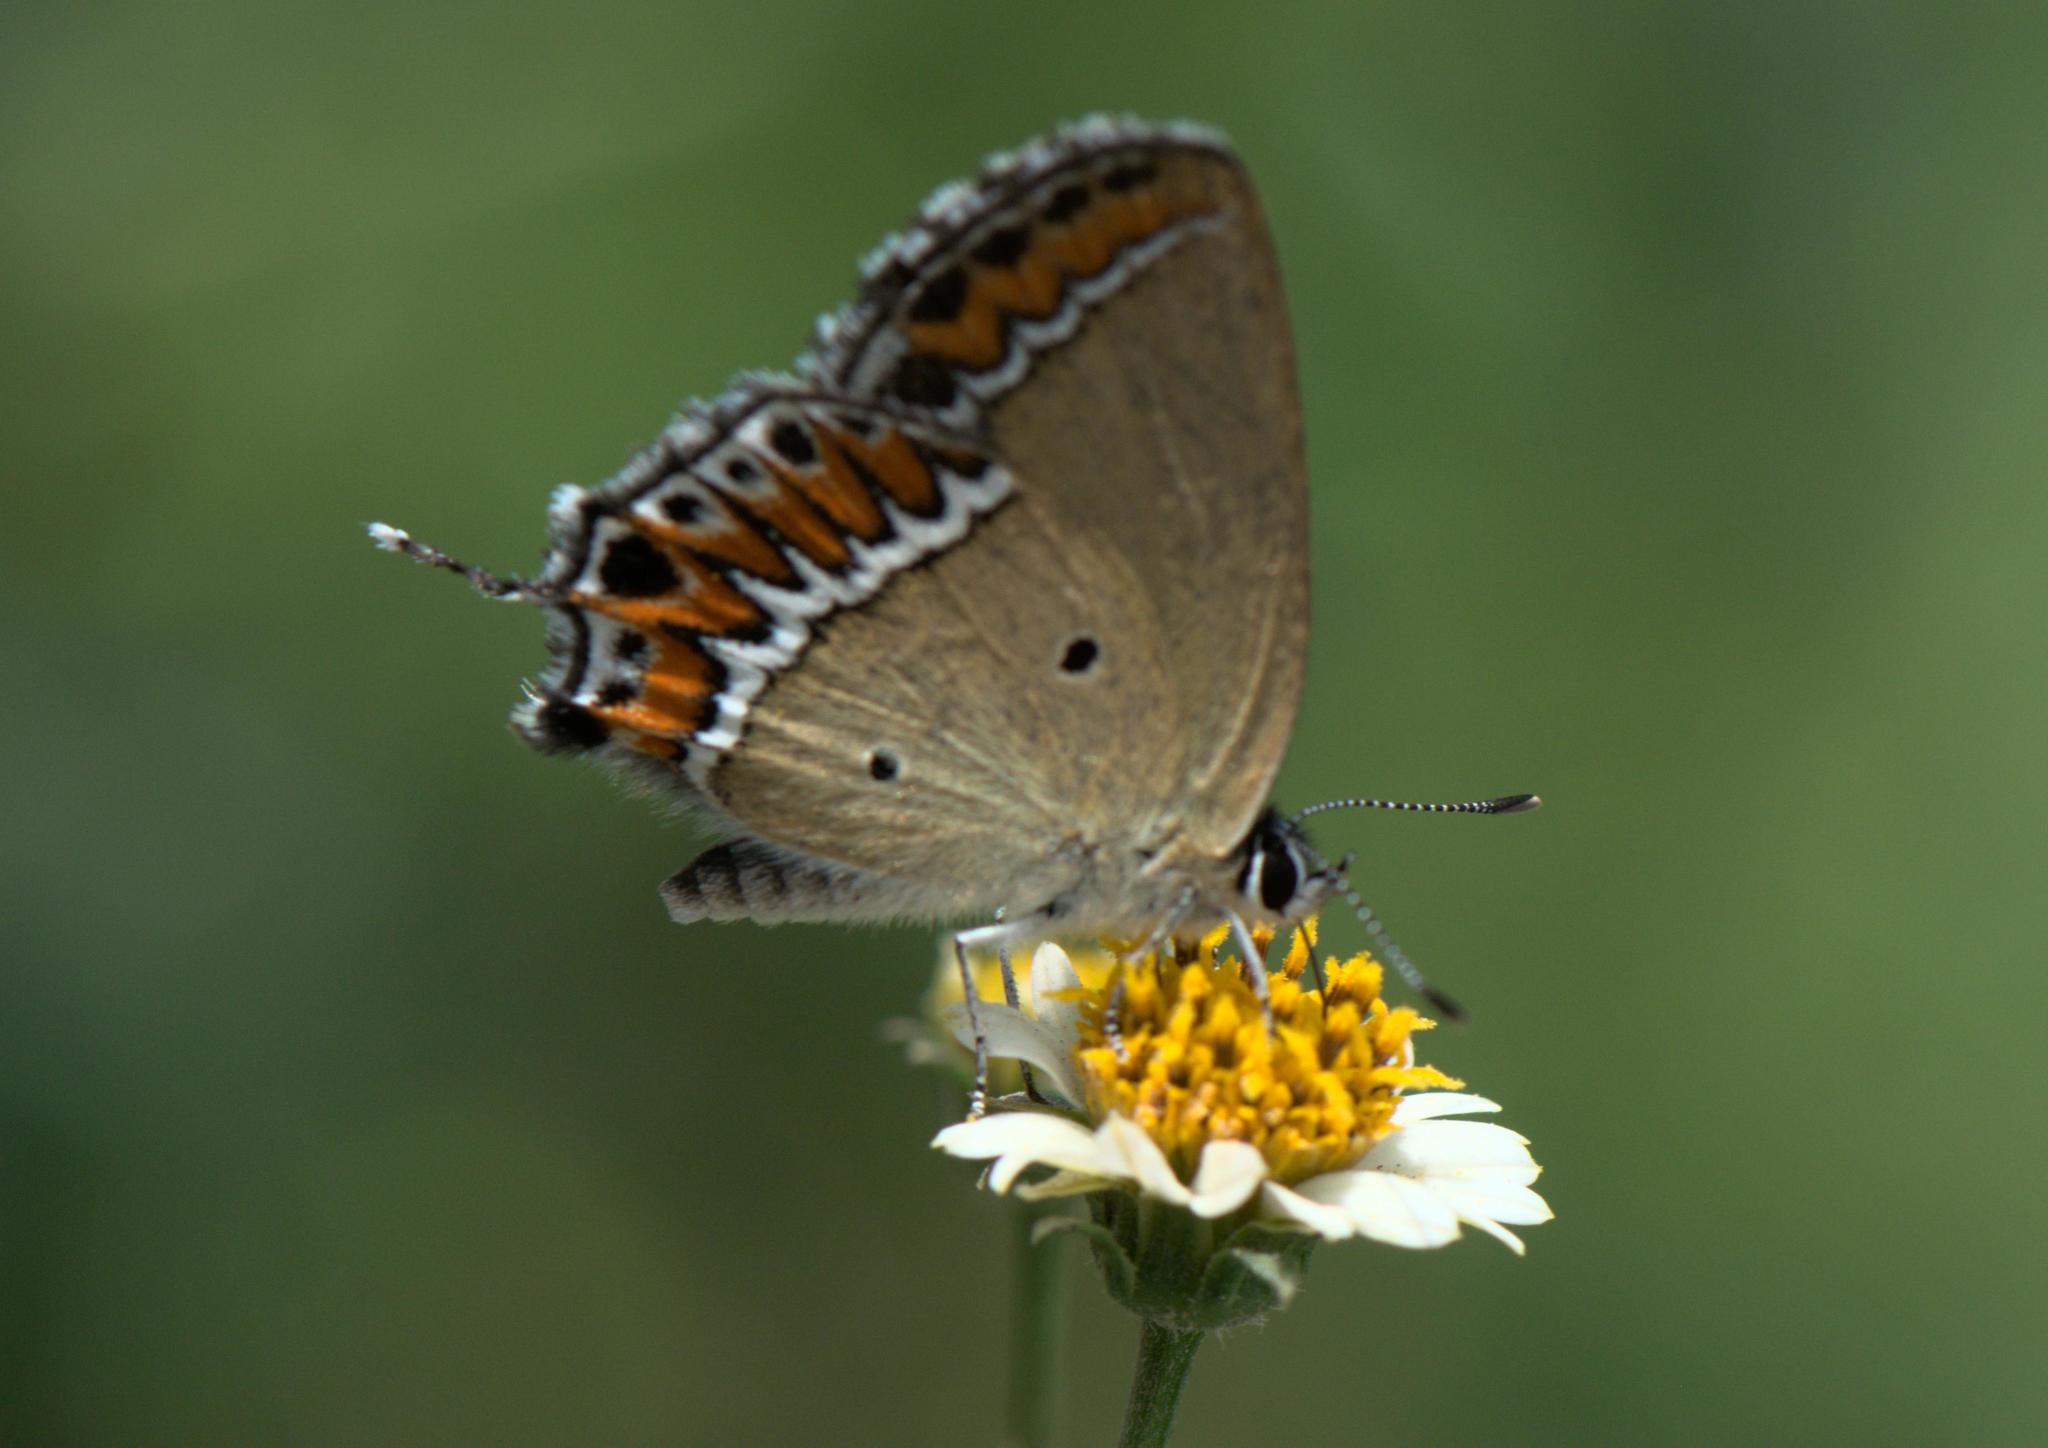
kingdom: Animalia
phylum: Arthropoda
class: Insecta
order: Lepidoptera
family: Lycaenidae
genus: Heliophorus
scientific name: Heliophorus sena
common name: Sorrel sapphire
